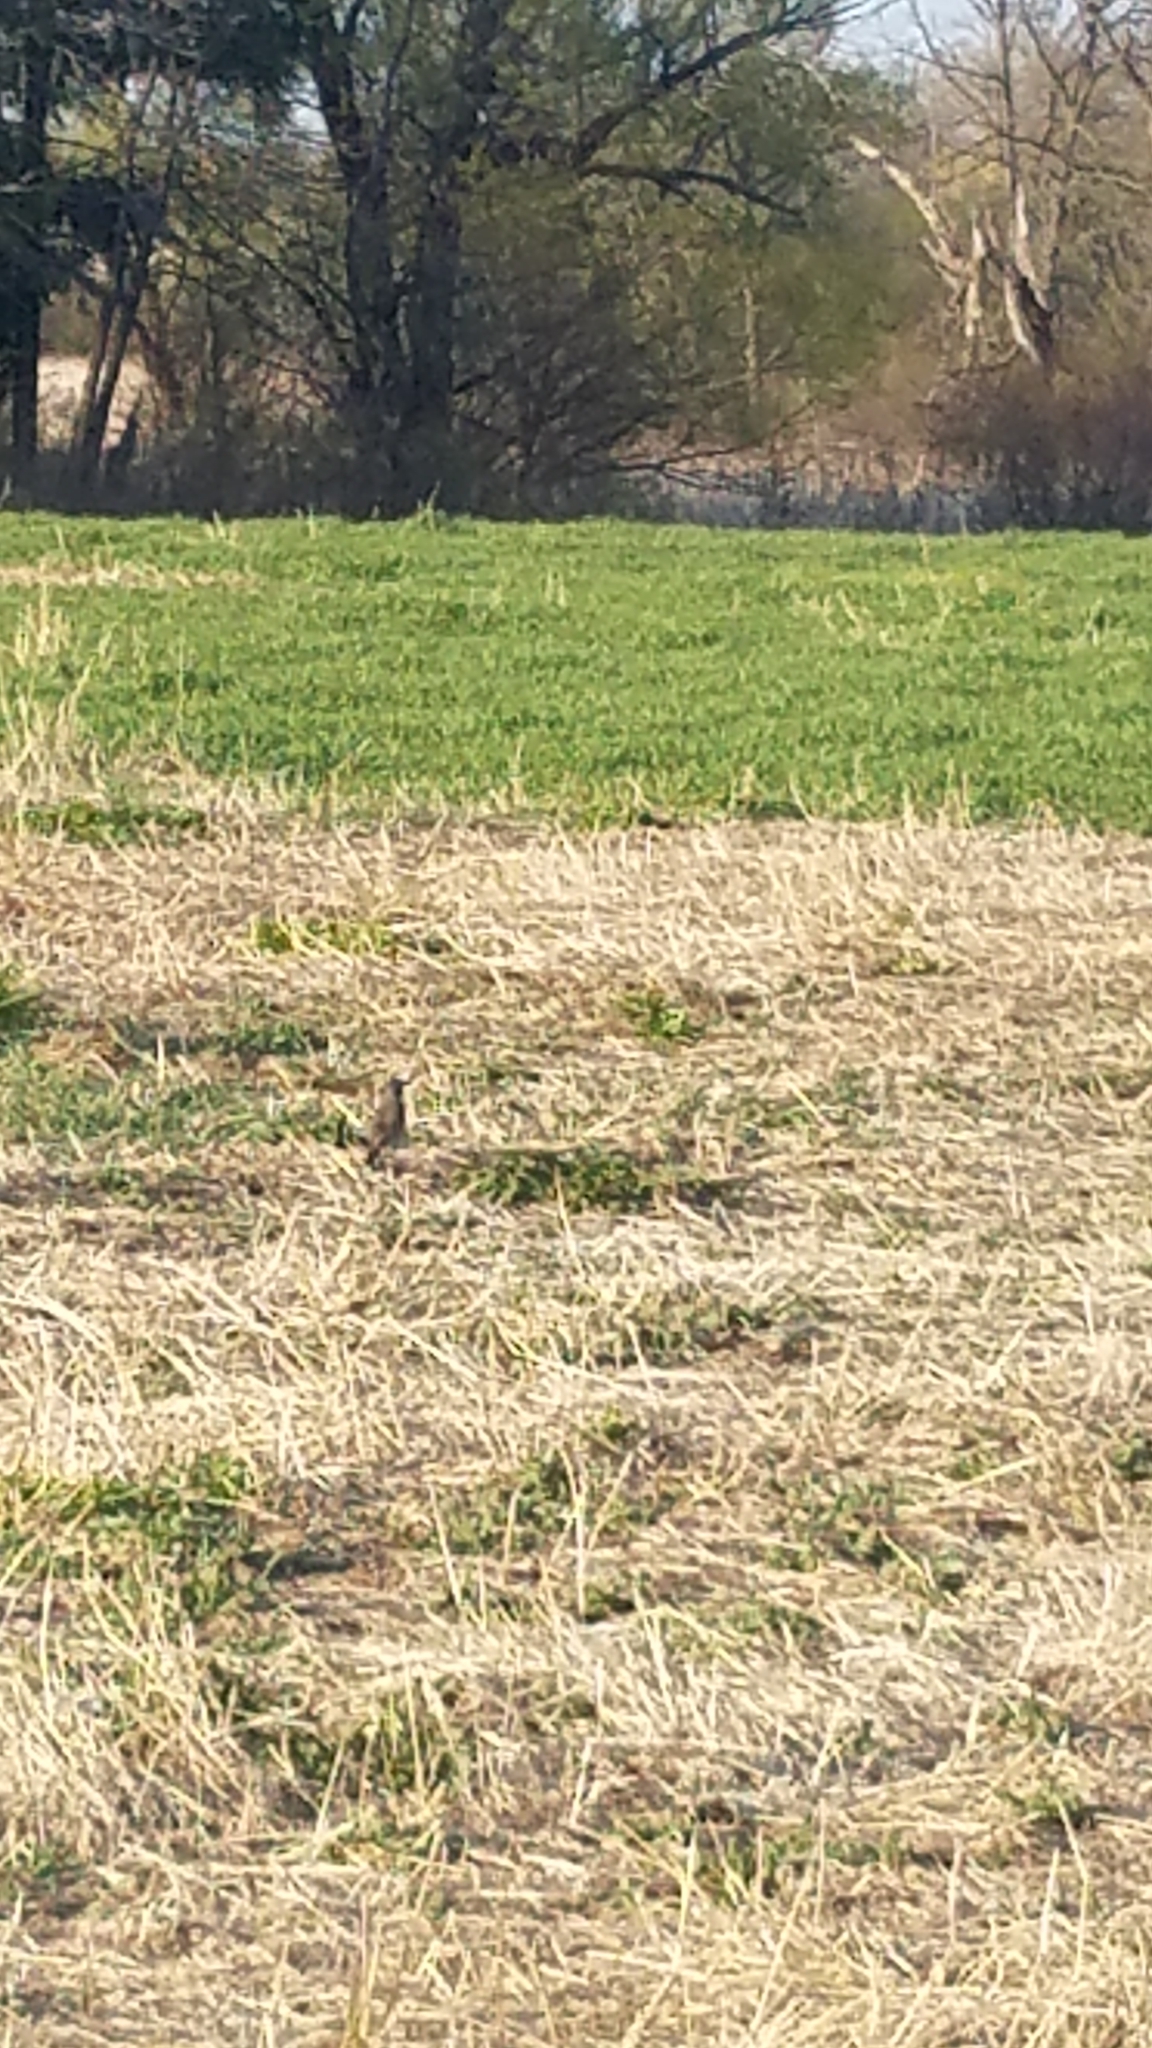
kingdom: Animalia
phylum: Chordata
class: Aves
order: Passeriformes
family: Turdidae
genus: Turdus
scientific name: Turdus migratorius
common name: American robin
